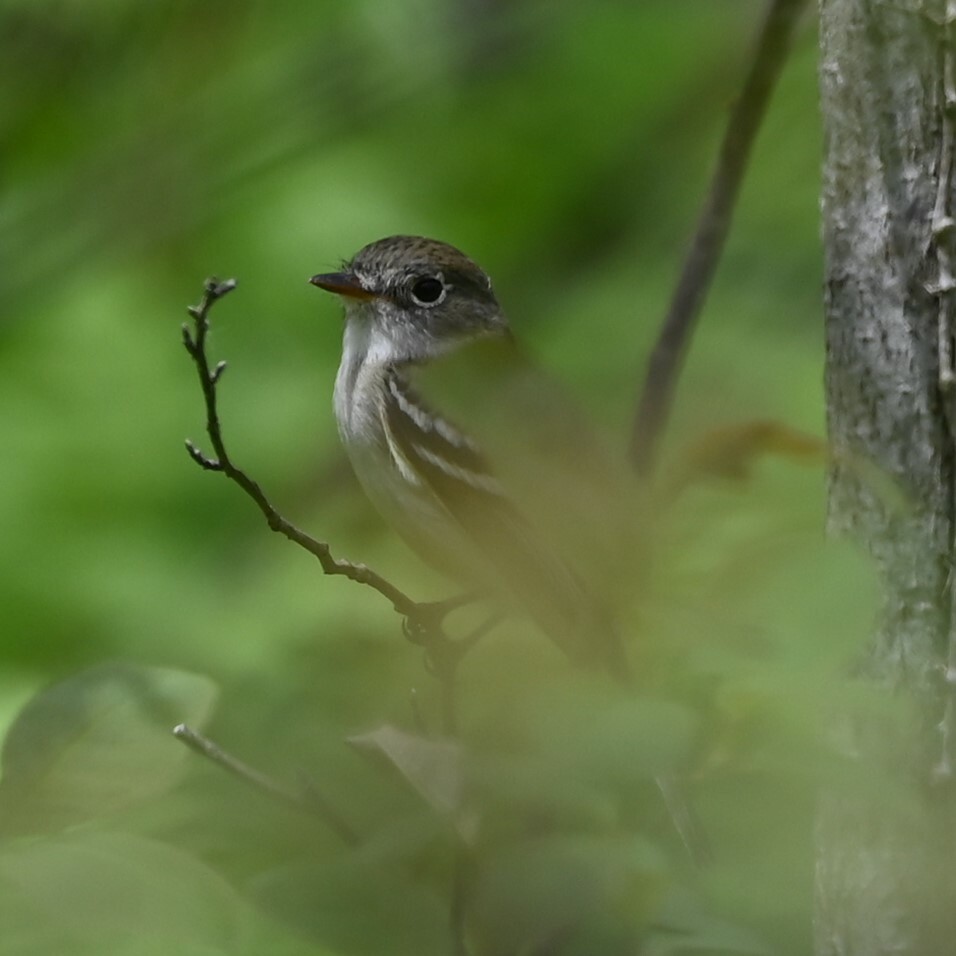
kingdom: Animalia
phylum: Chordata
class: Aves
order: Passeriformes
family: Tyrannidae
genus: Empidonax
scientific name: Empidonax minimus
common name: Least flycatcher
